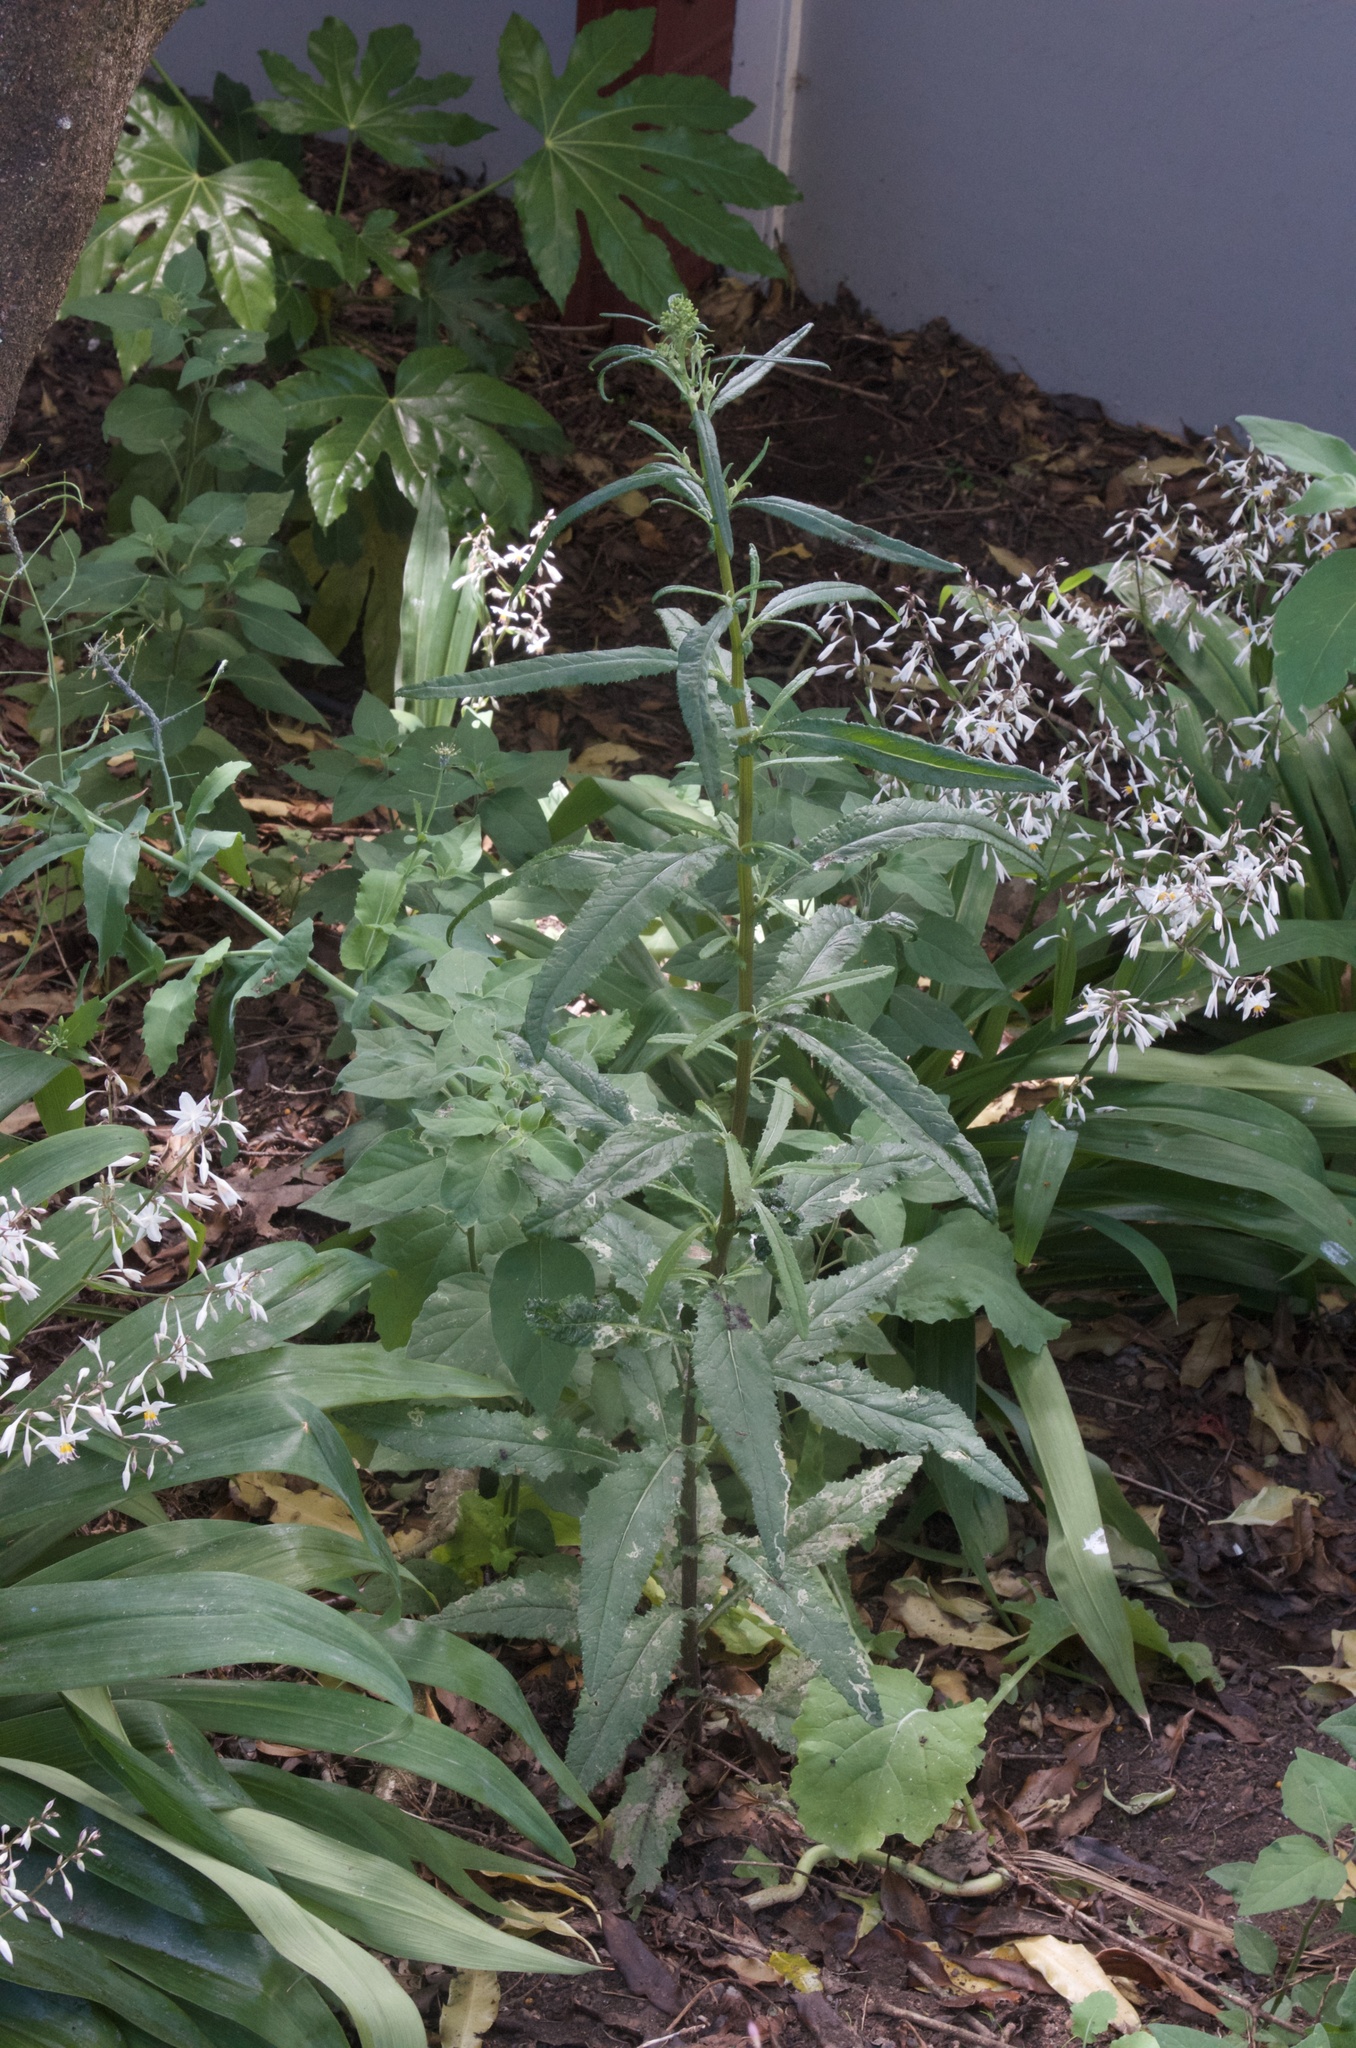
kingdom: Plantae
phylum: Tracheophyta
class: Magnoliopsida
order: Asterales
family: Asteraceae
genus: Senecio
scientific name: Senecio minimus
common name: Toothed fireweed
